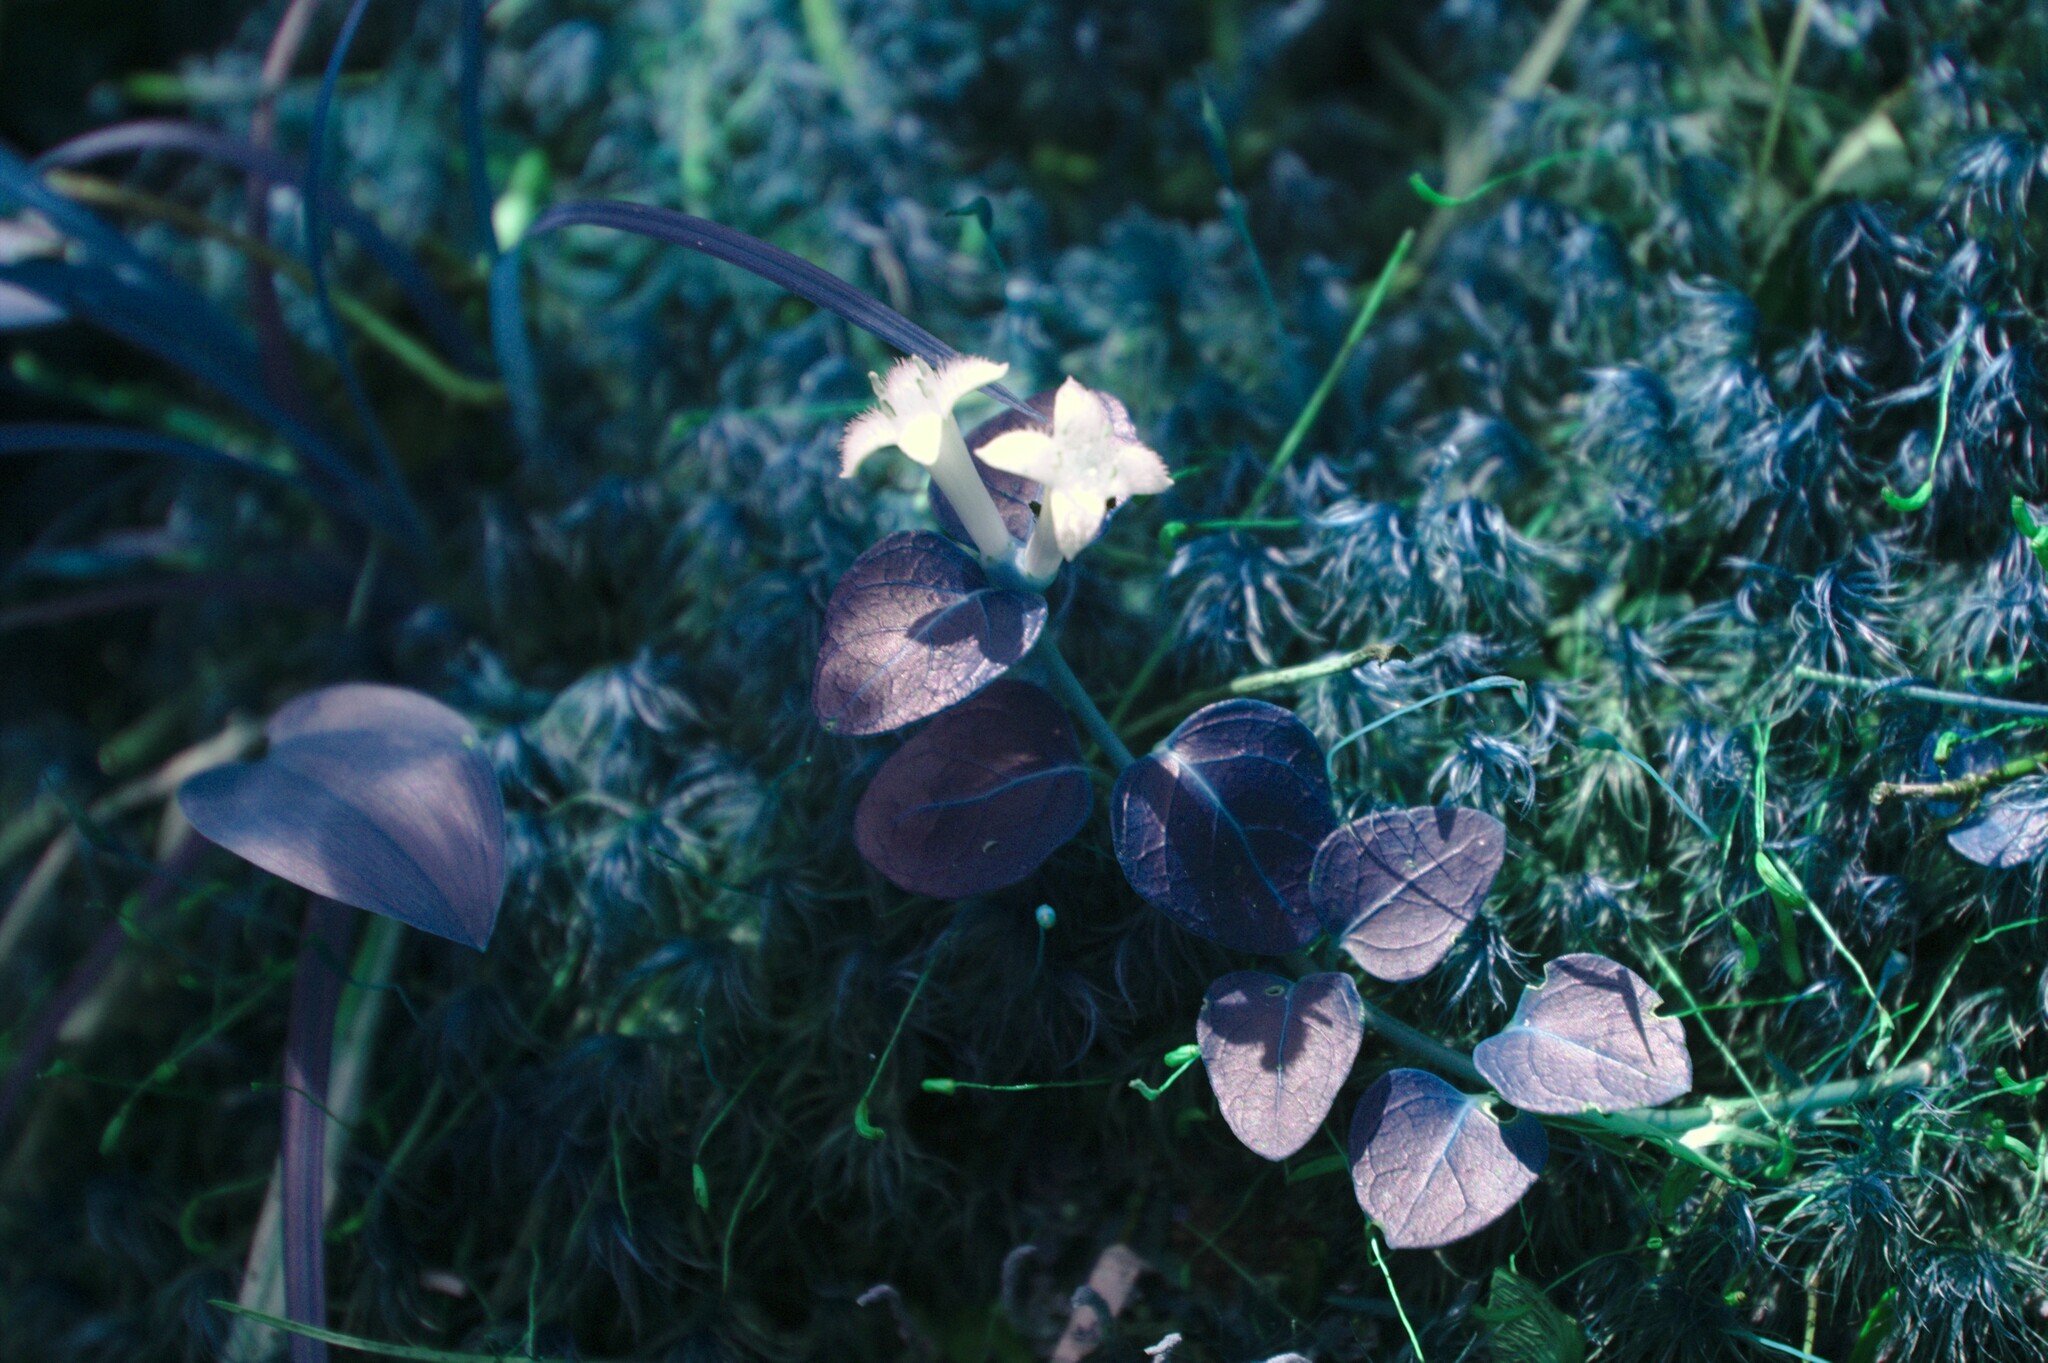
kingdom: Plantae
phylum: Tracheophyta
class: Magnoliopsida
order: Gentianales
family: Rubiaceae
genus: Mitchella
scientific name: Mitchella repens
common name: Partridge-berry
